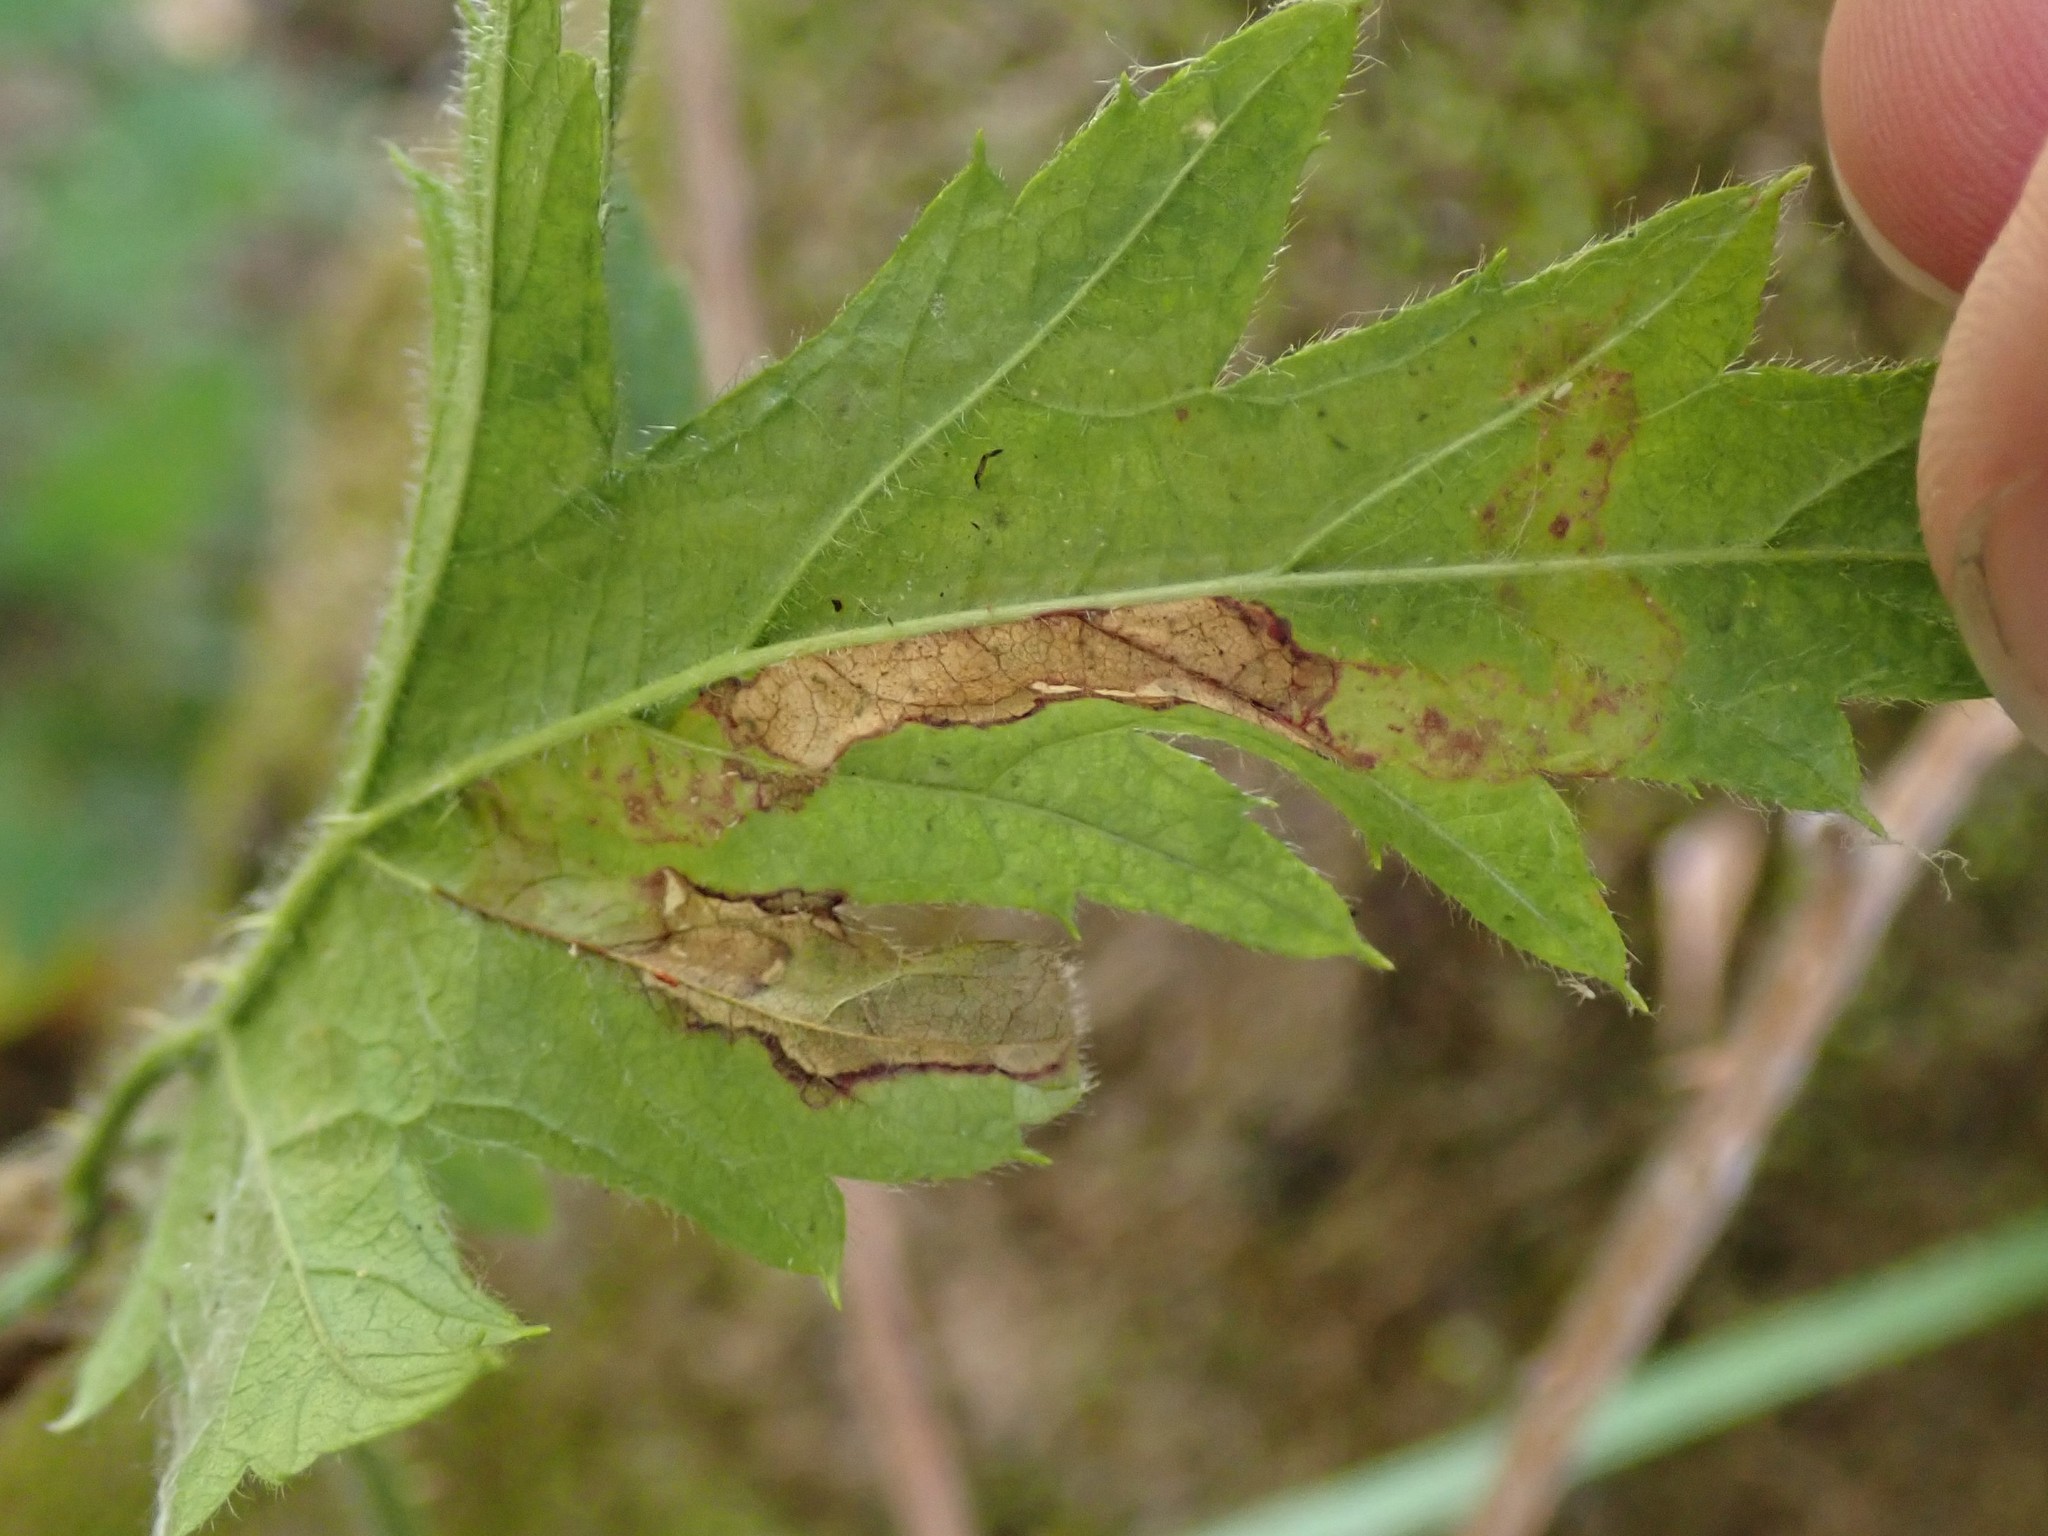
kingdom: Animalia
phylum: Arthropoda
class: Insecta
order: Diptera
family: Agromyzidae
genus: Agromyza
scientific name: Agromyza vockerothi
